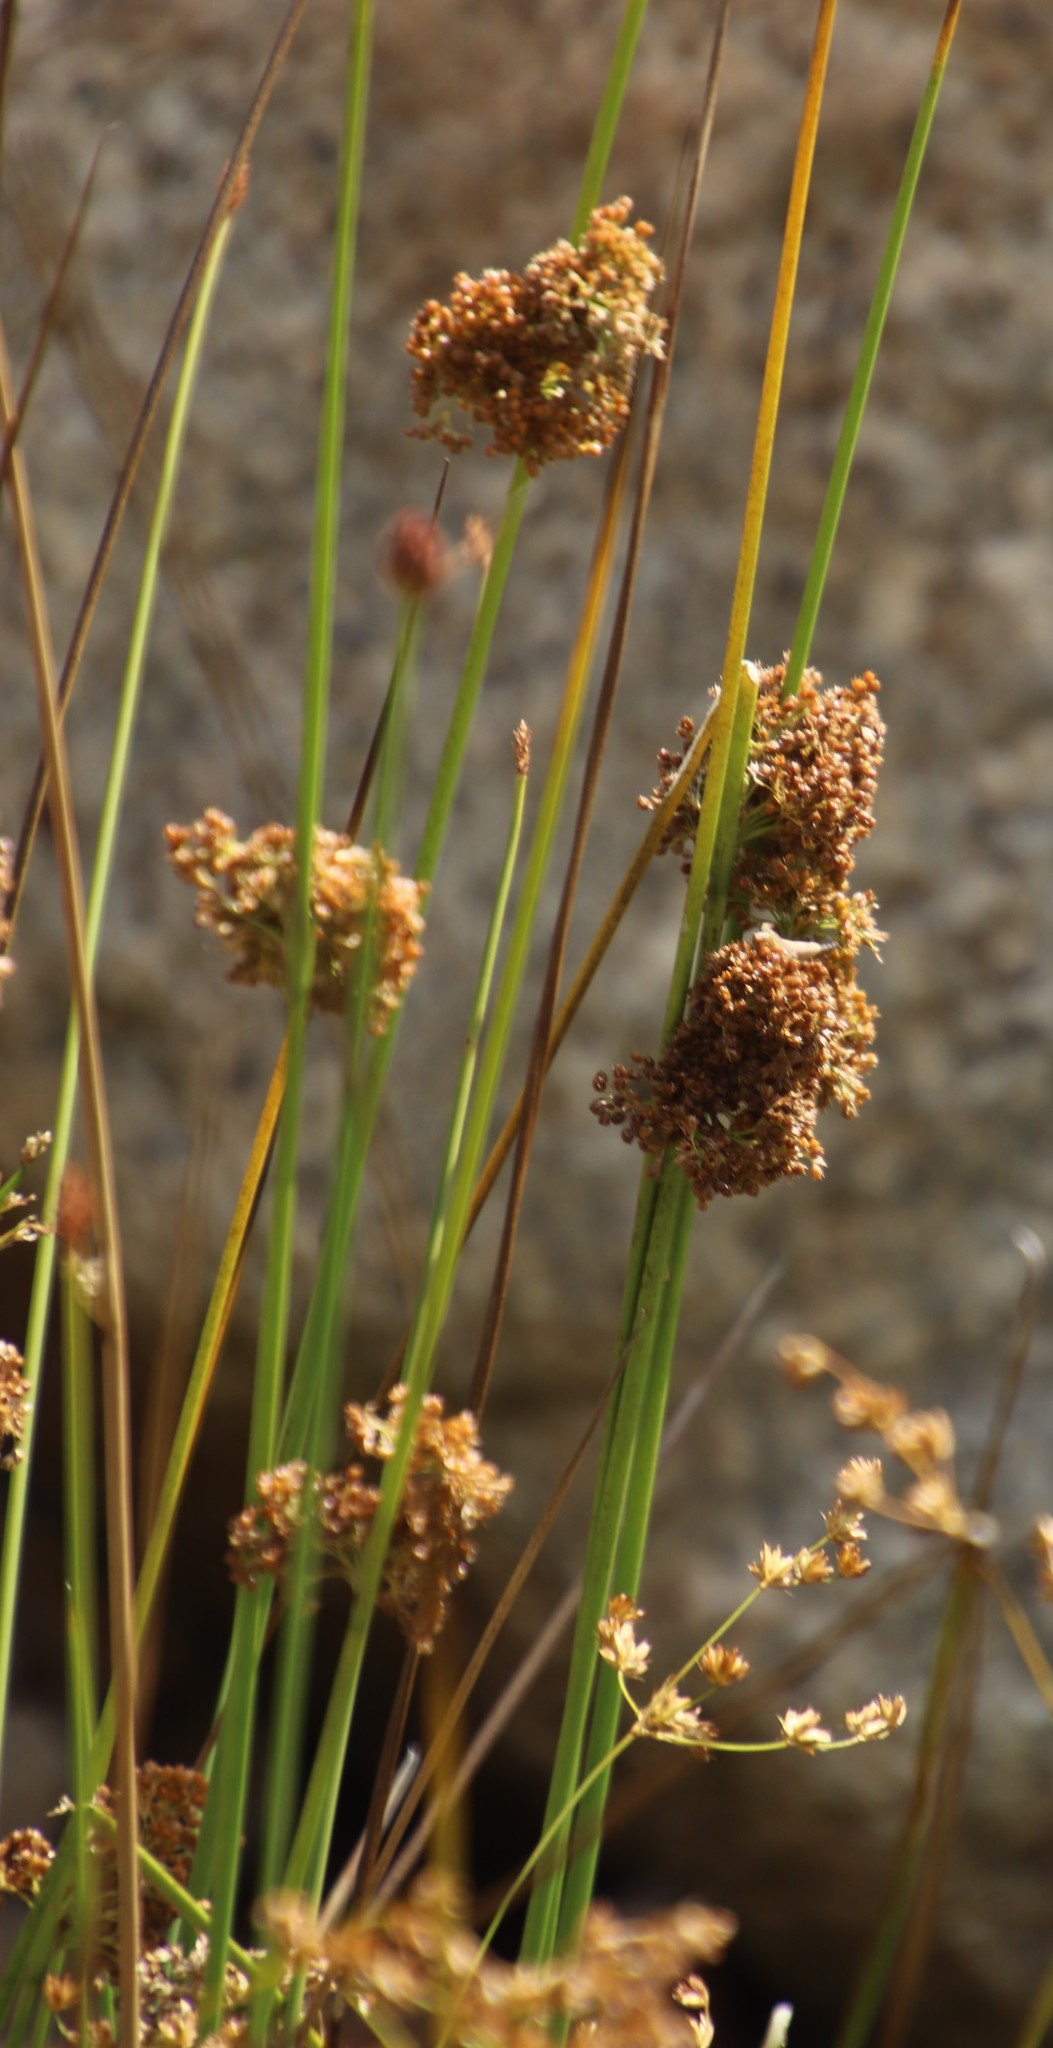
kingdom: Plantae
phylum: Tracheophyta
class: Liliopsida
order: Poales
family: Juncaceae
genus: Juncus
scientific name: Juncus effusus
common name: Soft rush
